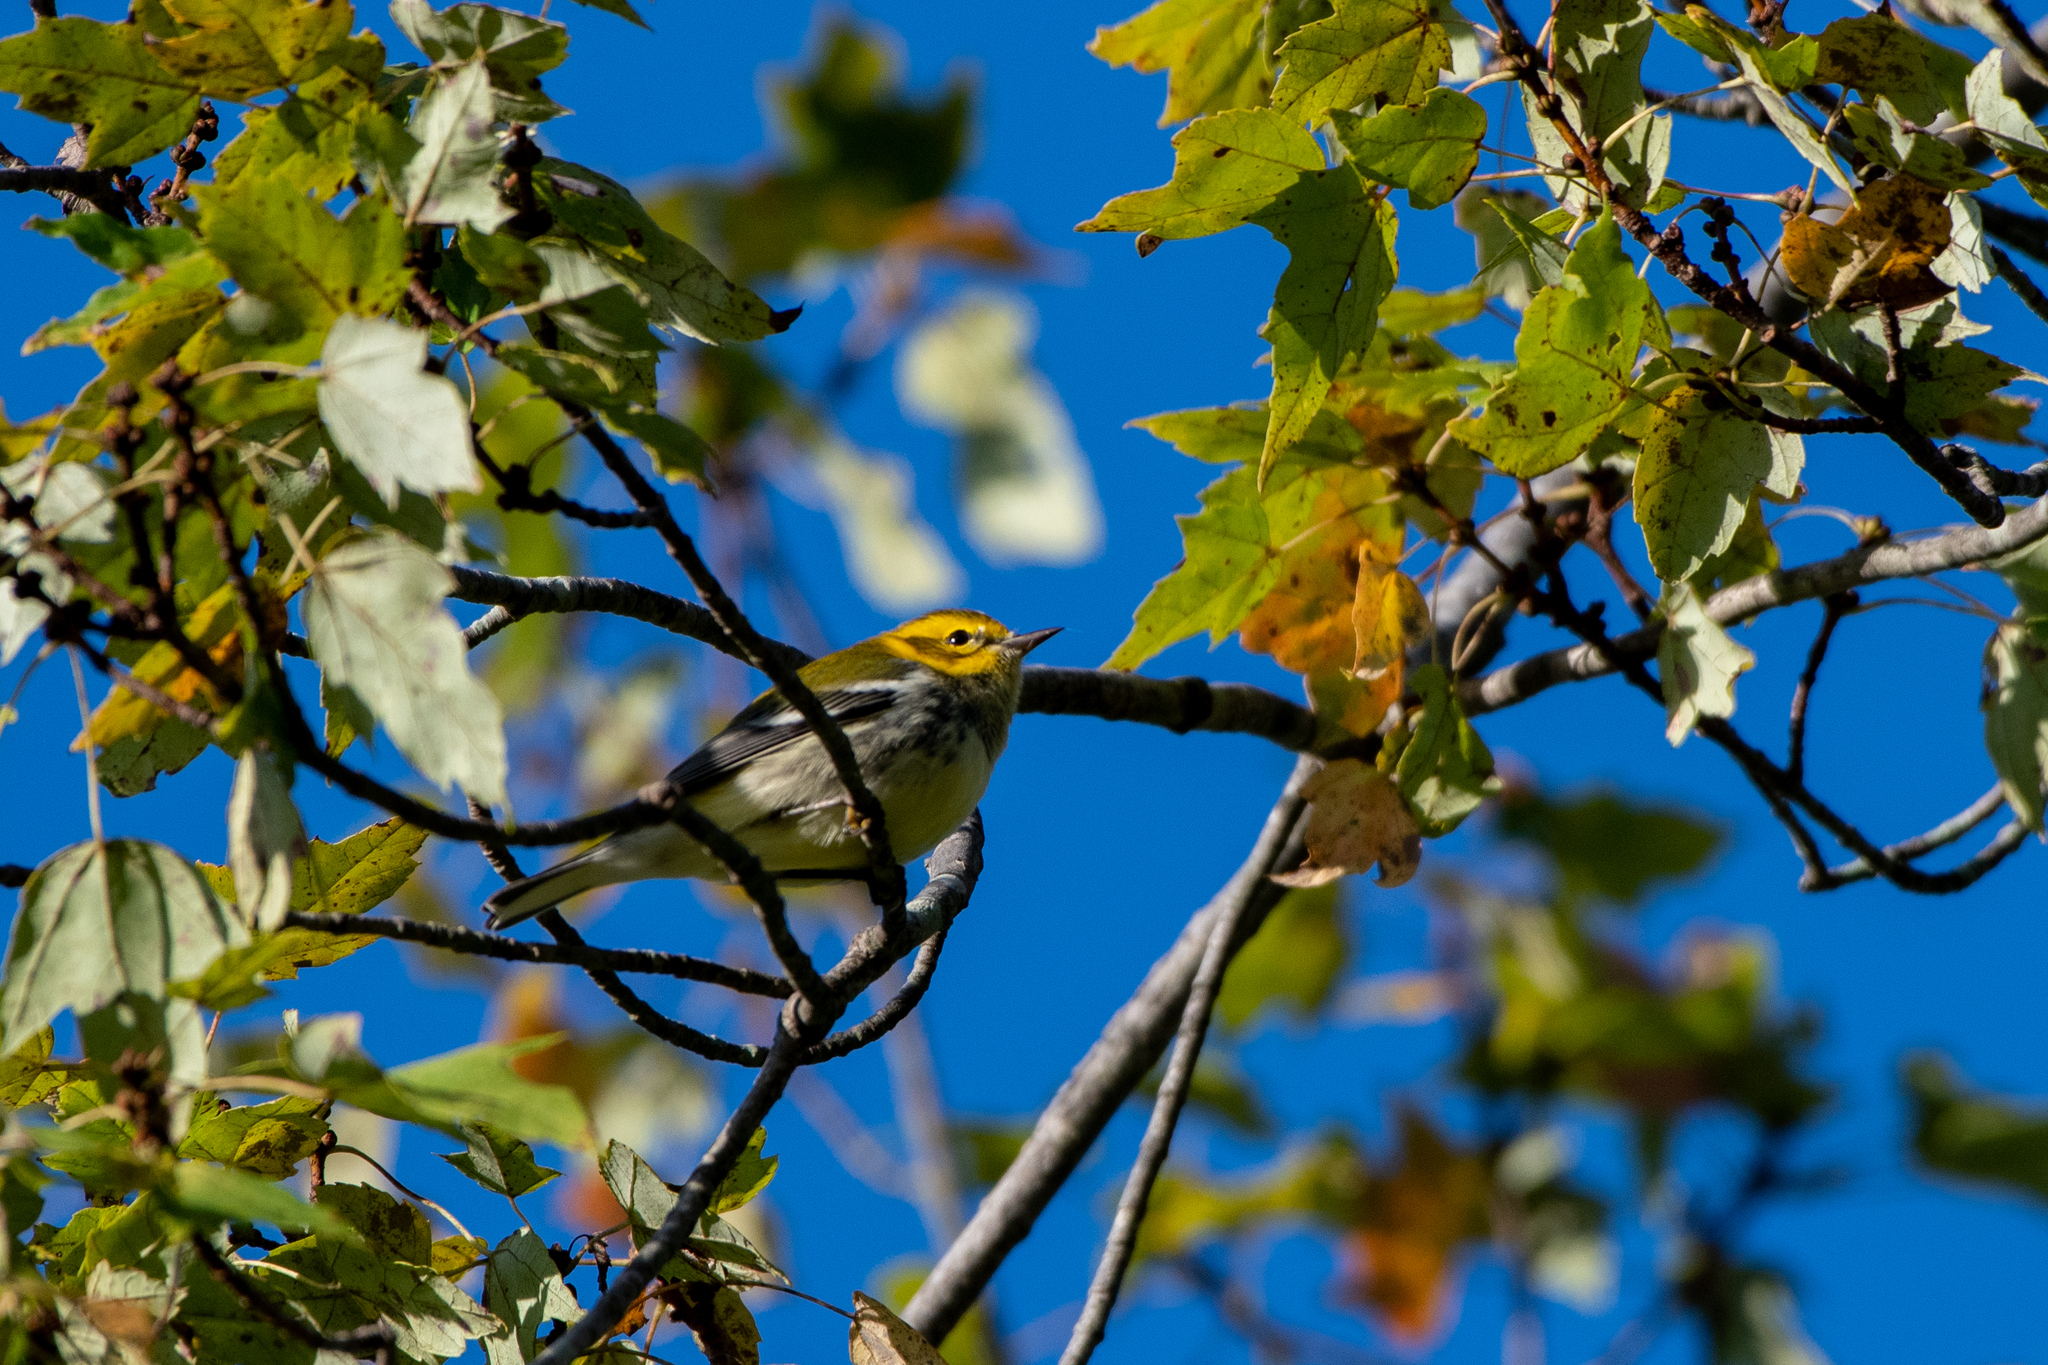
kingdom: Animalia
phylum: Chordata
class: Aves
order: Passeriformes
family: Parulidae
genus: Setophaga
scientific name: Setophaga virens
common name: Black-throated green warbler
